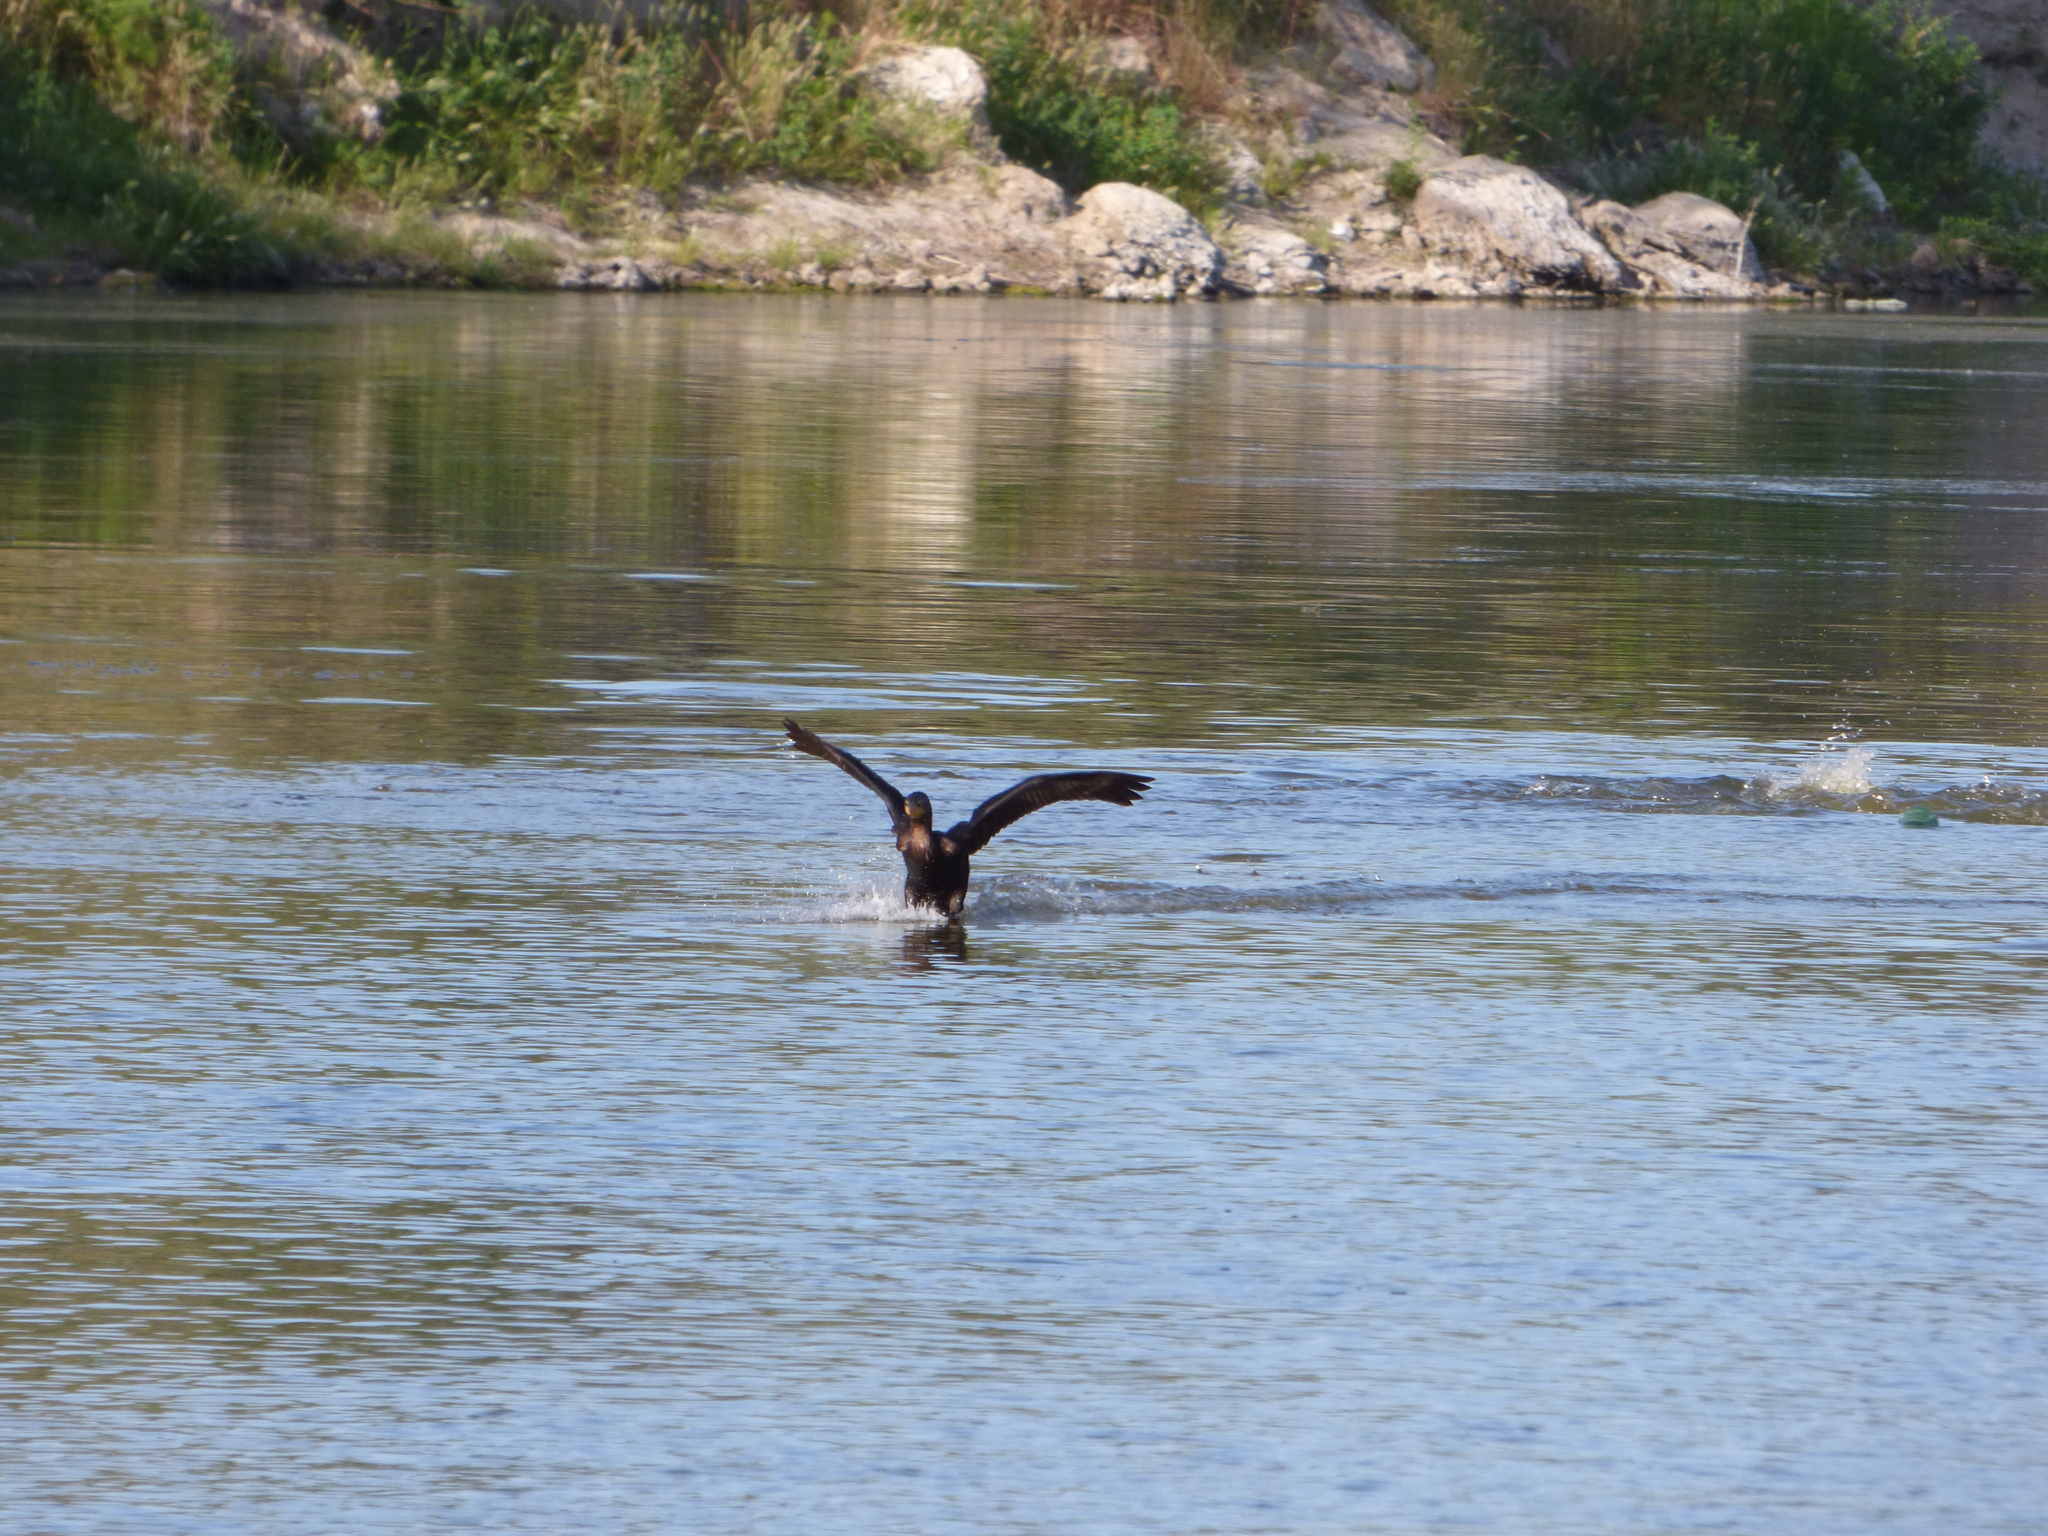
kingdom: Animalia
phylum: Chordata
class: Aves
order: Suliformes
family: Phalacrocoracidae
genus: Phalacrocorax
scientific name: Phalacrocorax brasilianus
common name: Neotropic cormorant
